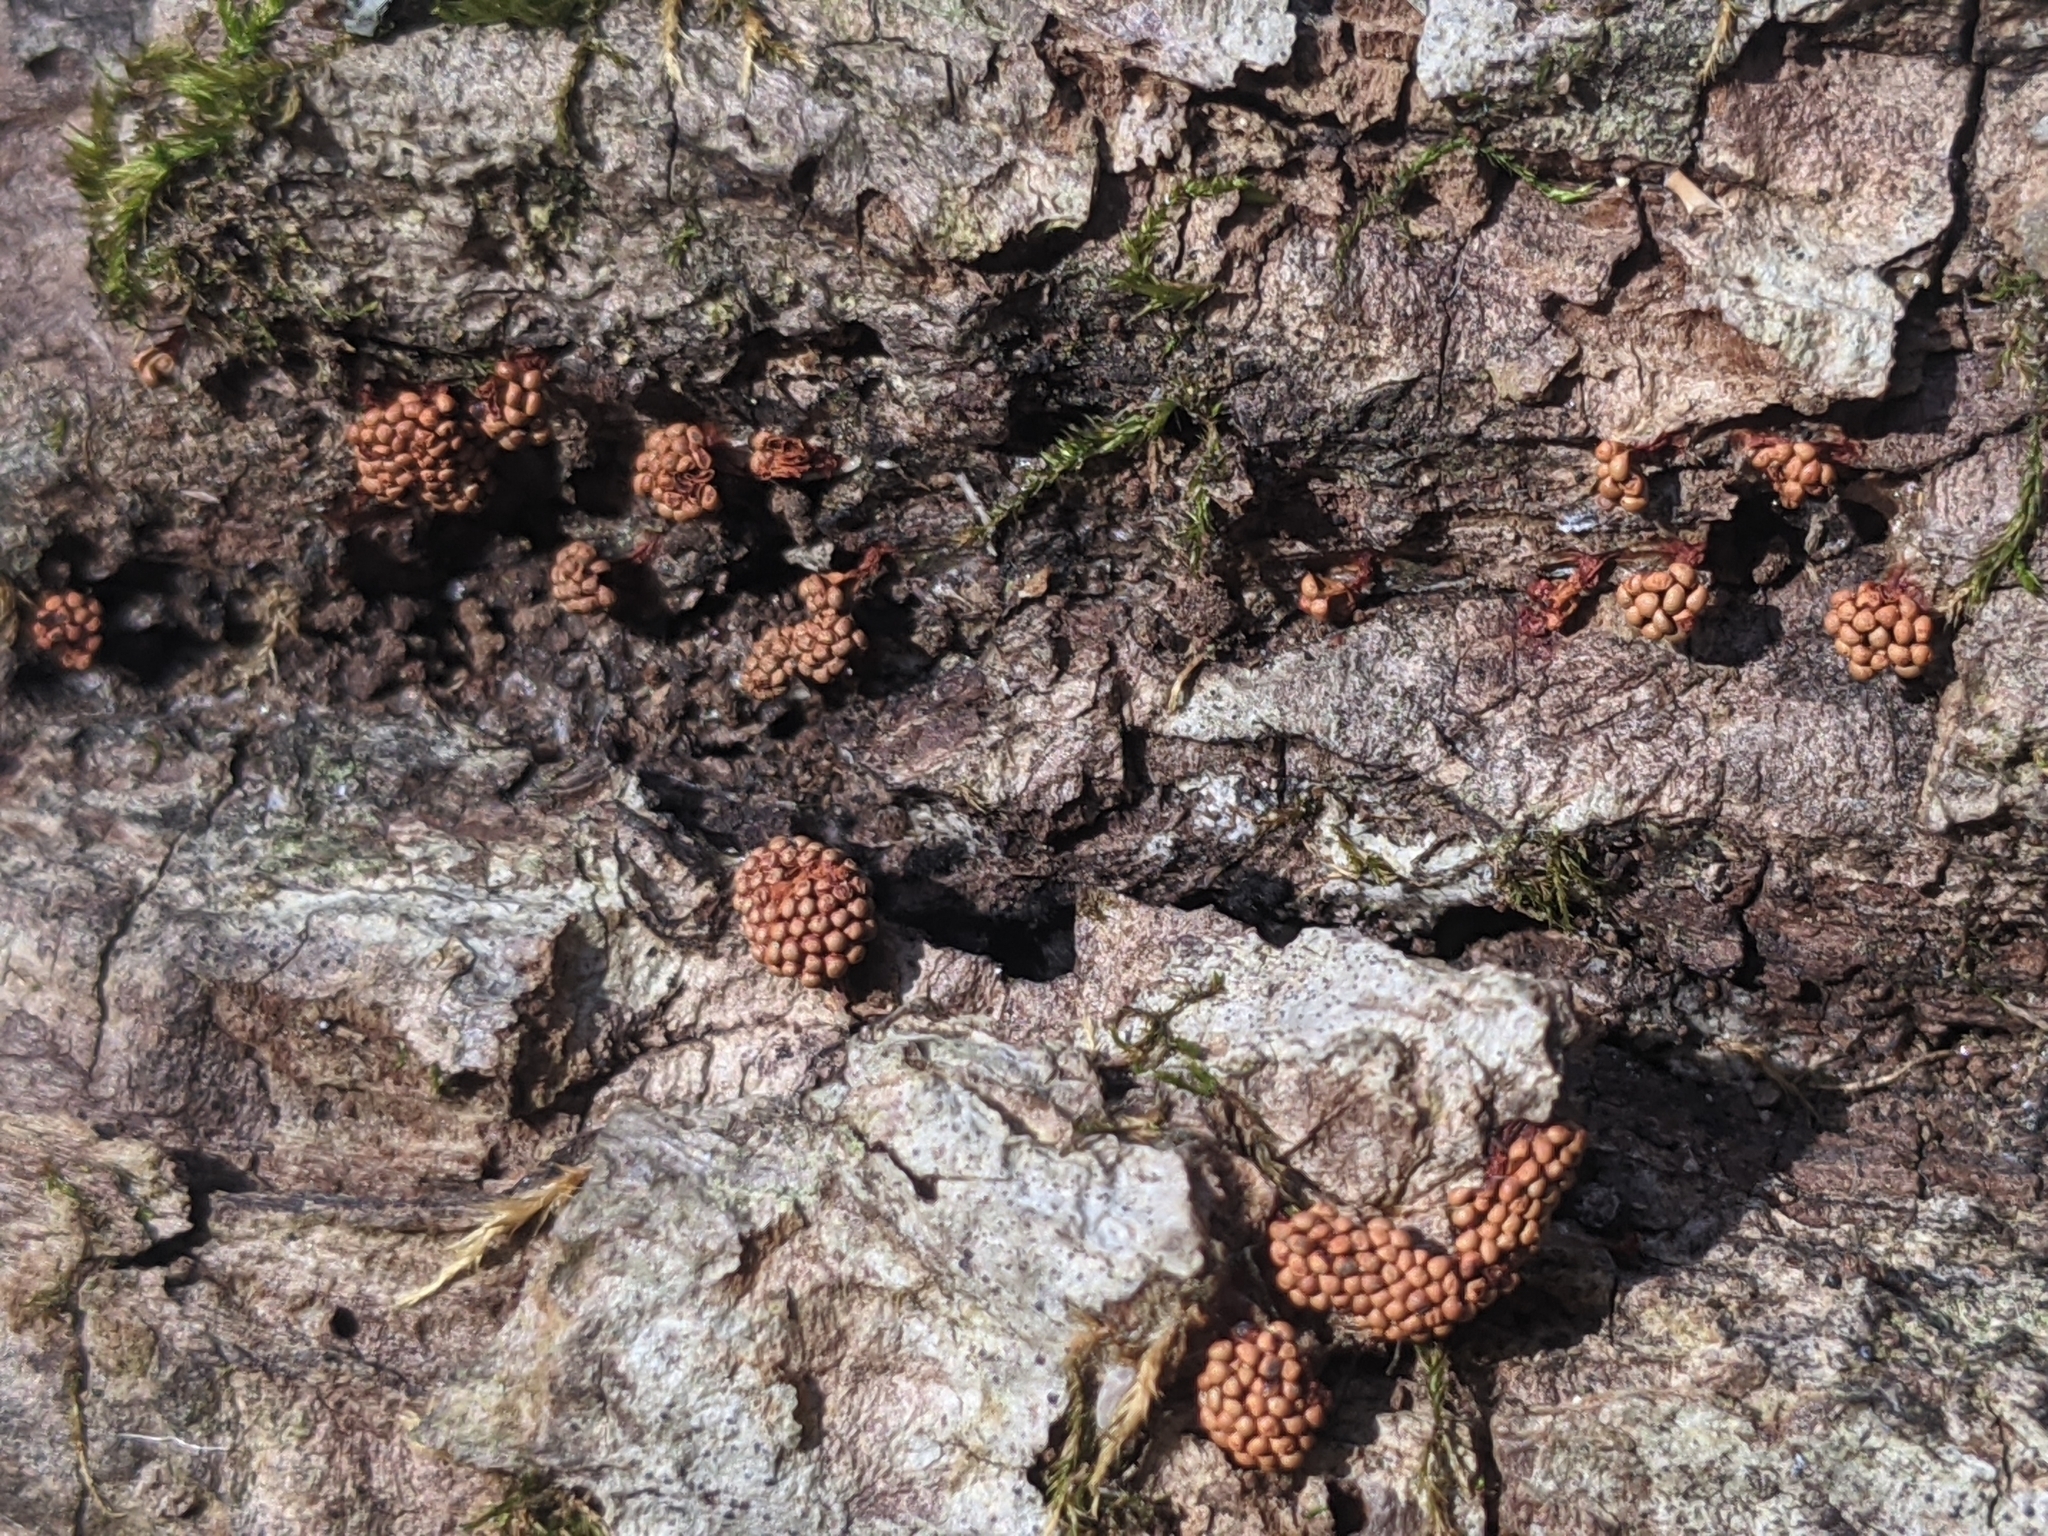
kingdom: Protozoa
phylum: Mycetozoa
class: Myxomycetes
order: Trichiales
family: Trichiaceae
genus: Metatrichia
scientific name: Metatrichia vesparia
